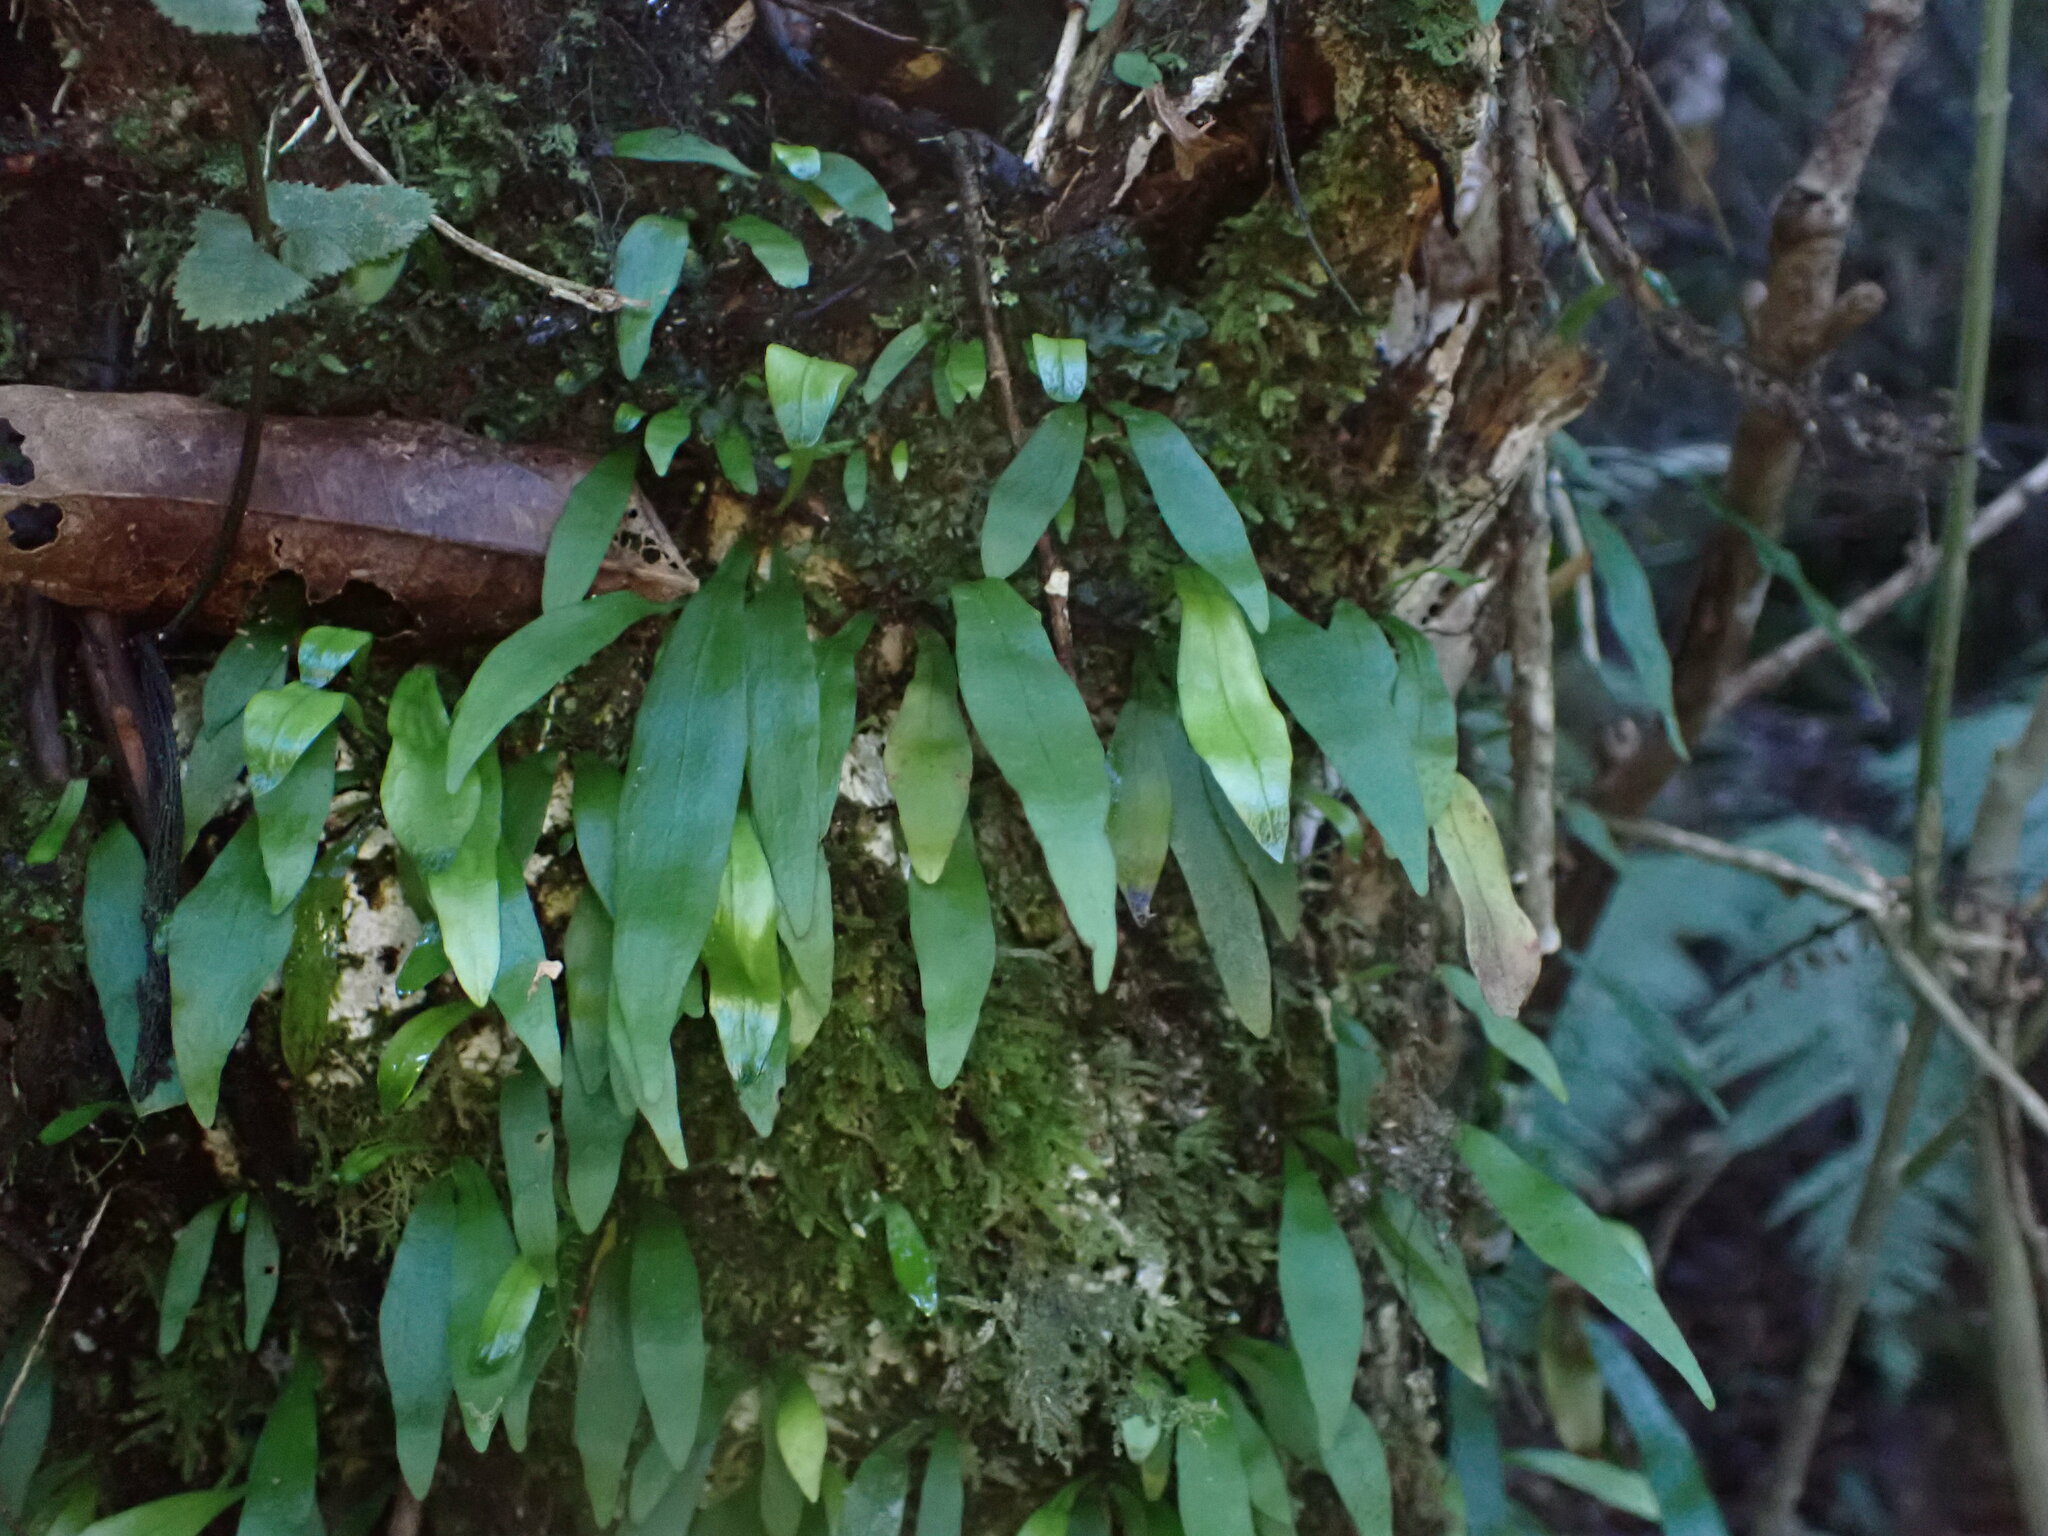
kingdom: Plantae
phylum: Tracheophyta
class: Polypodiopsida
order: Polypodiales
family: Polypodiaceae
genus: Loxogramme
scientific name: Loxogramme dictyopteris
